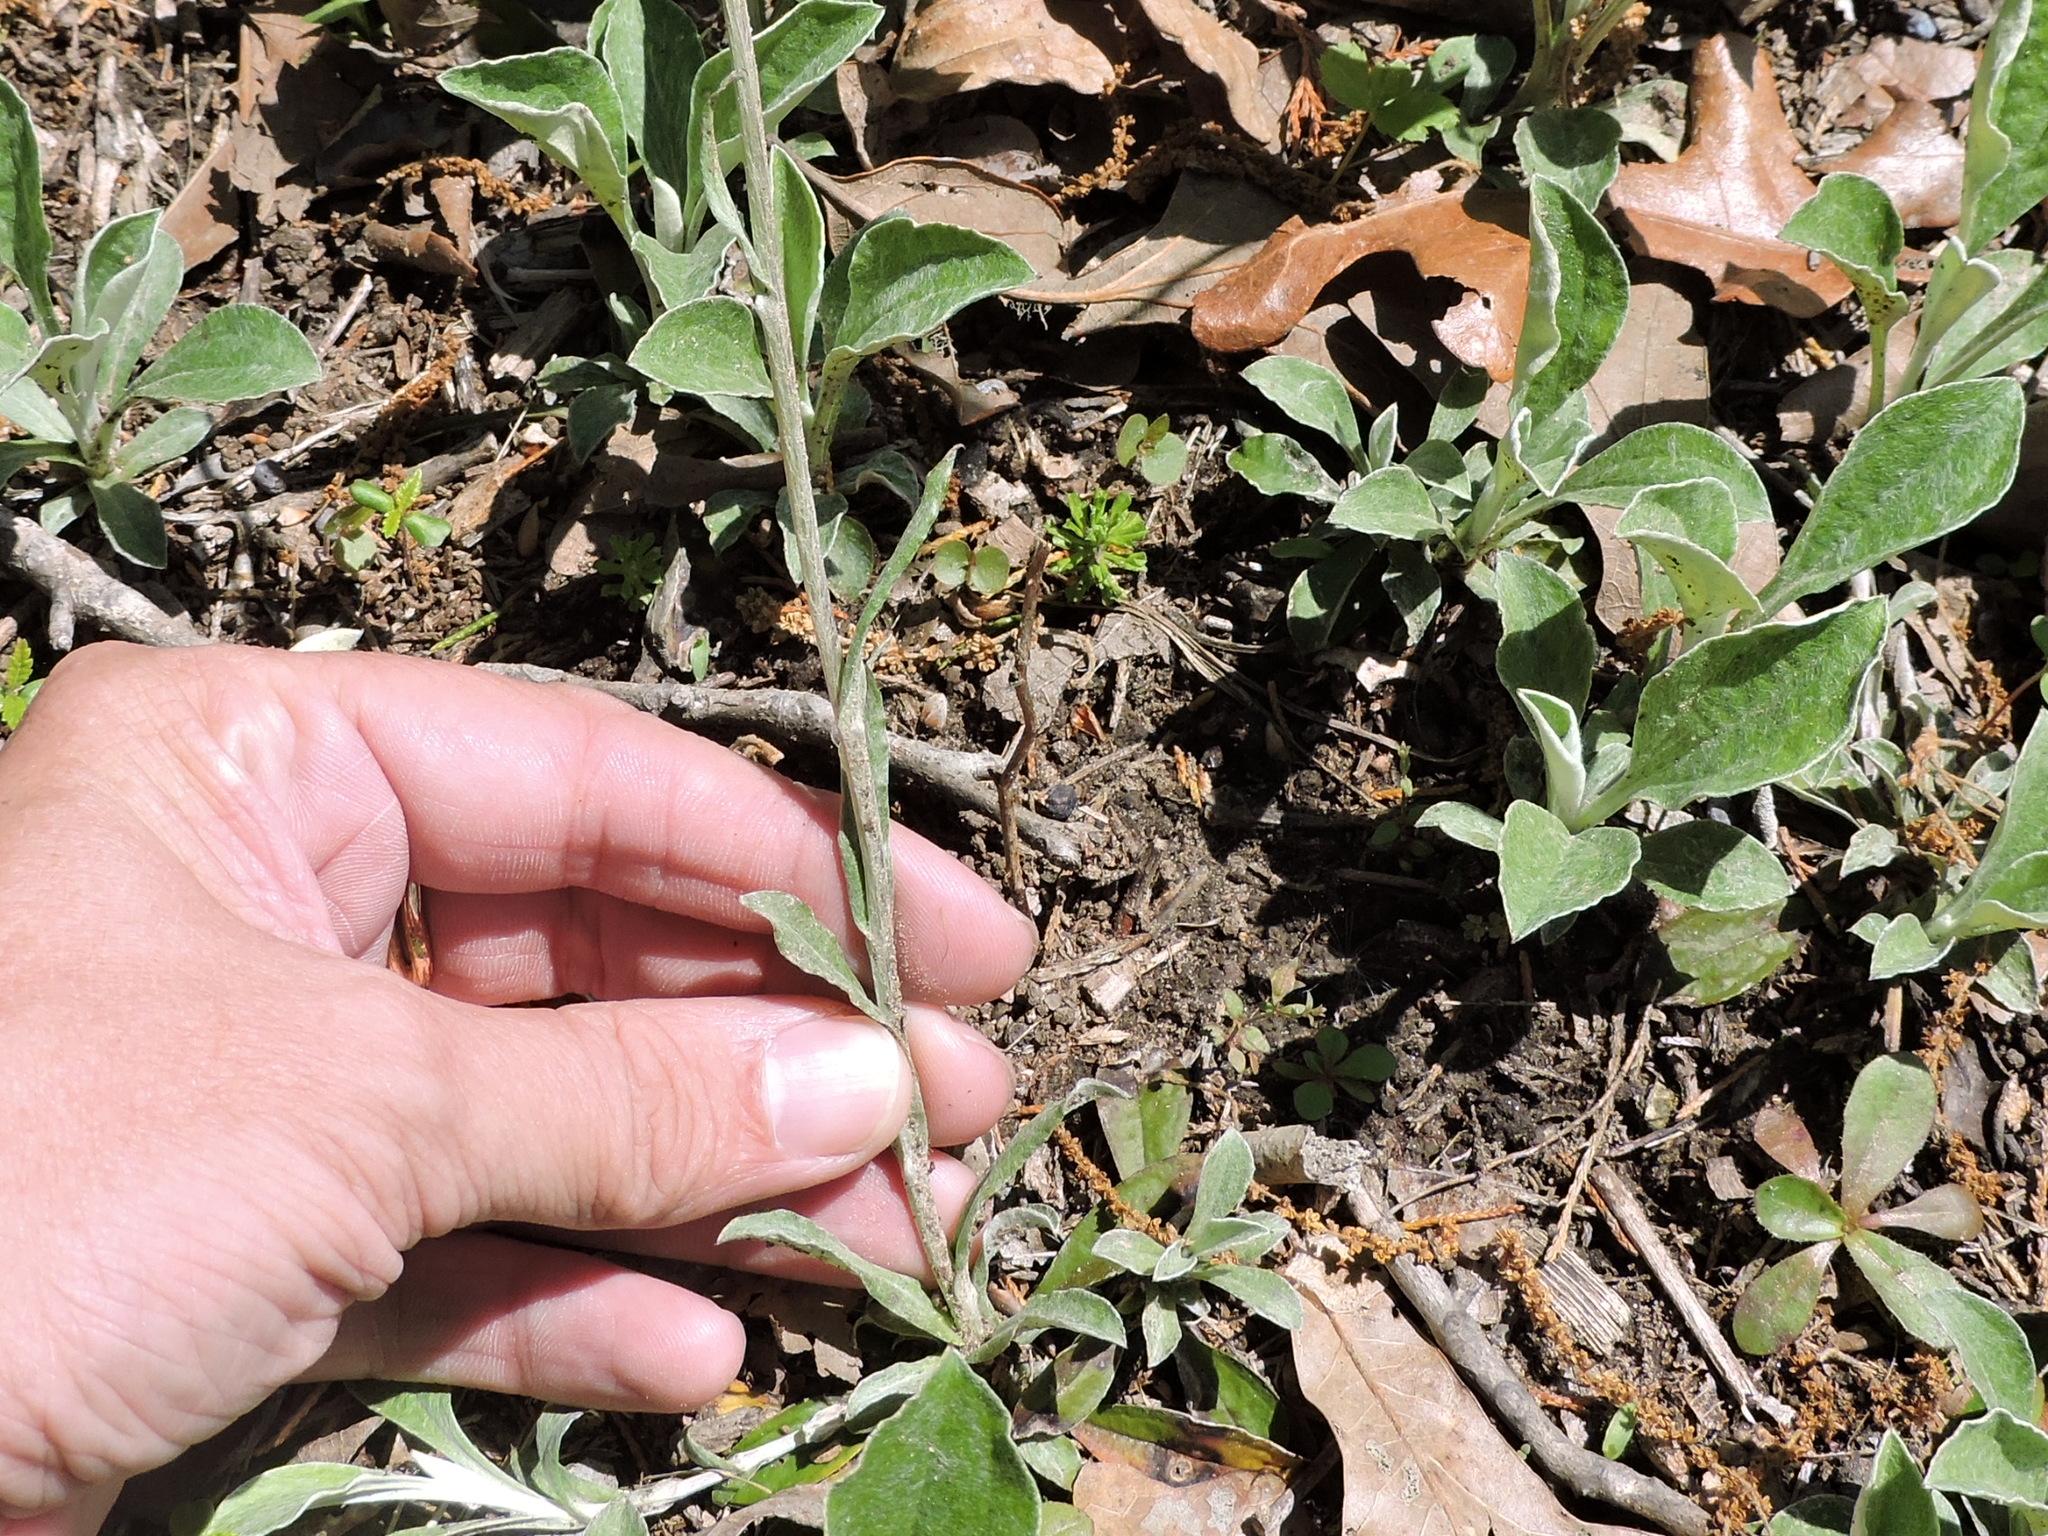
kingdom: Plantae
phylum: Tracheophyta
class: Magnoliopsida
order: Asterales
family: Asteraceae
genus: Antennaria
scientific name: Antennaria parlinii
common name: Parlin's pussytoes
